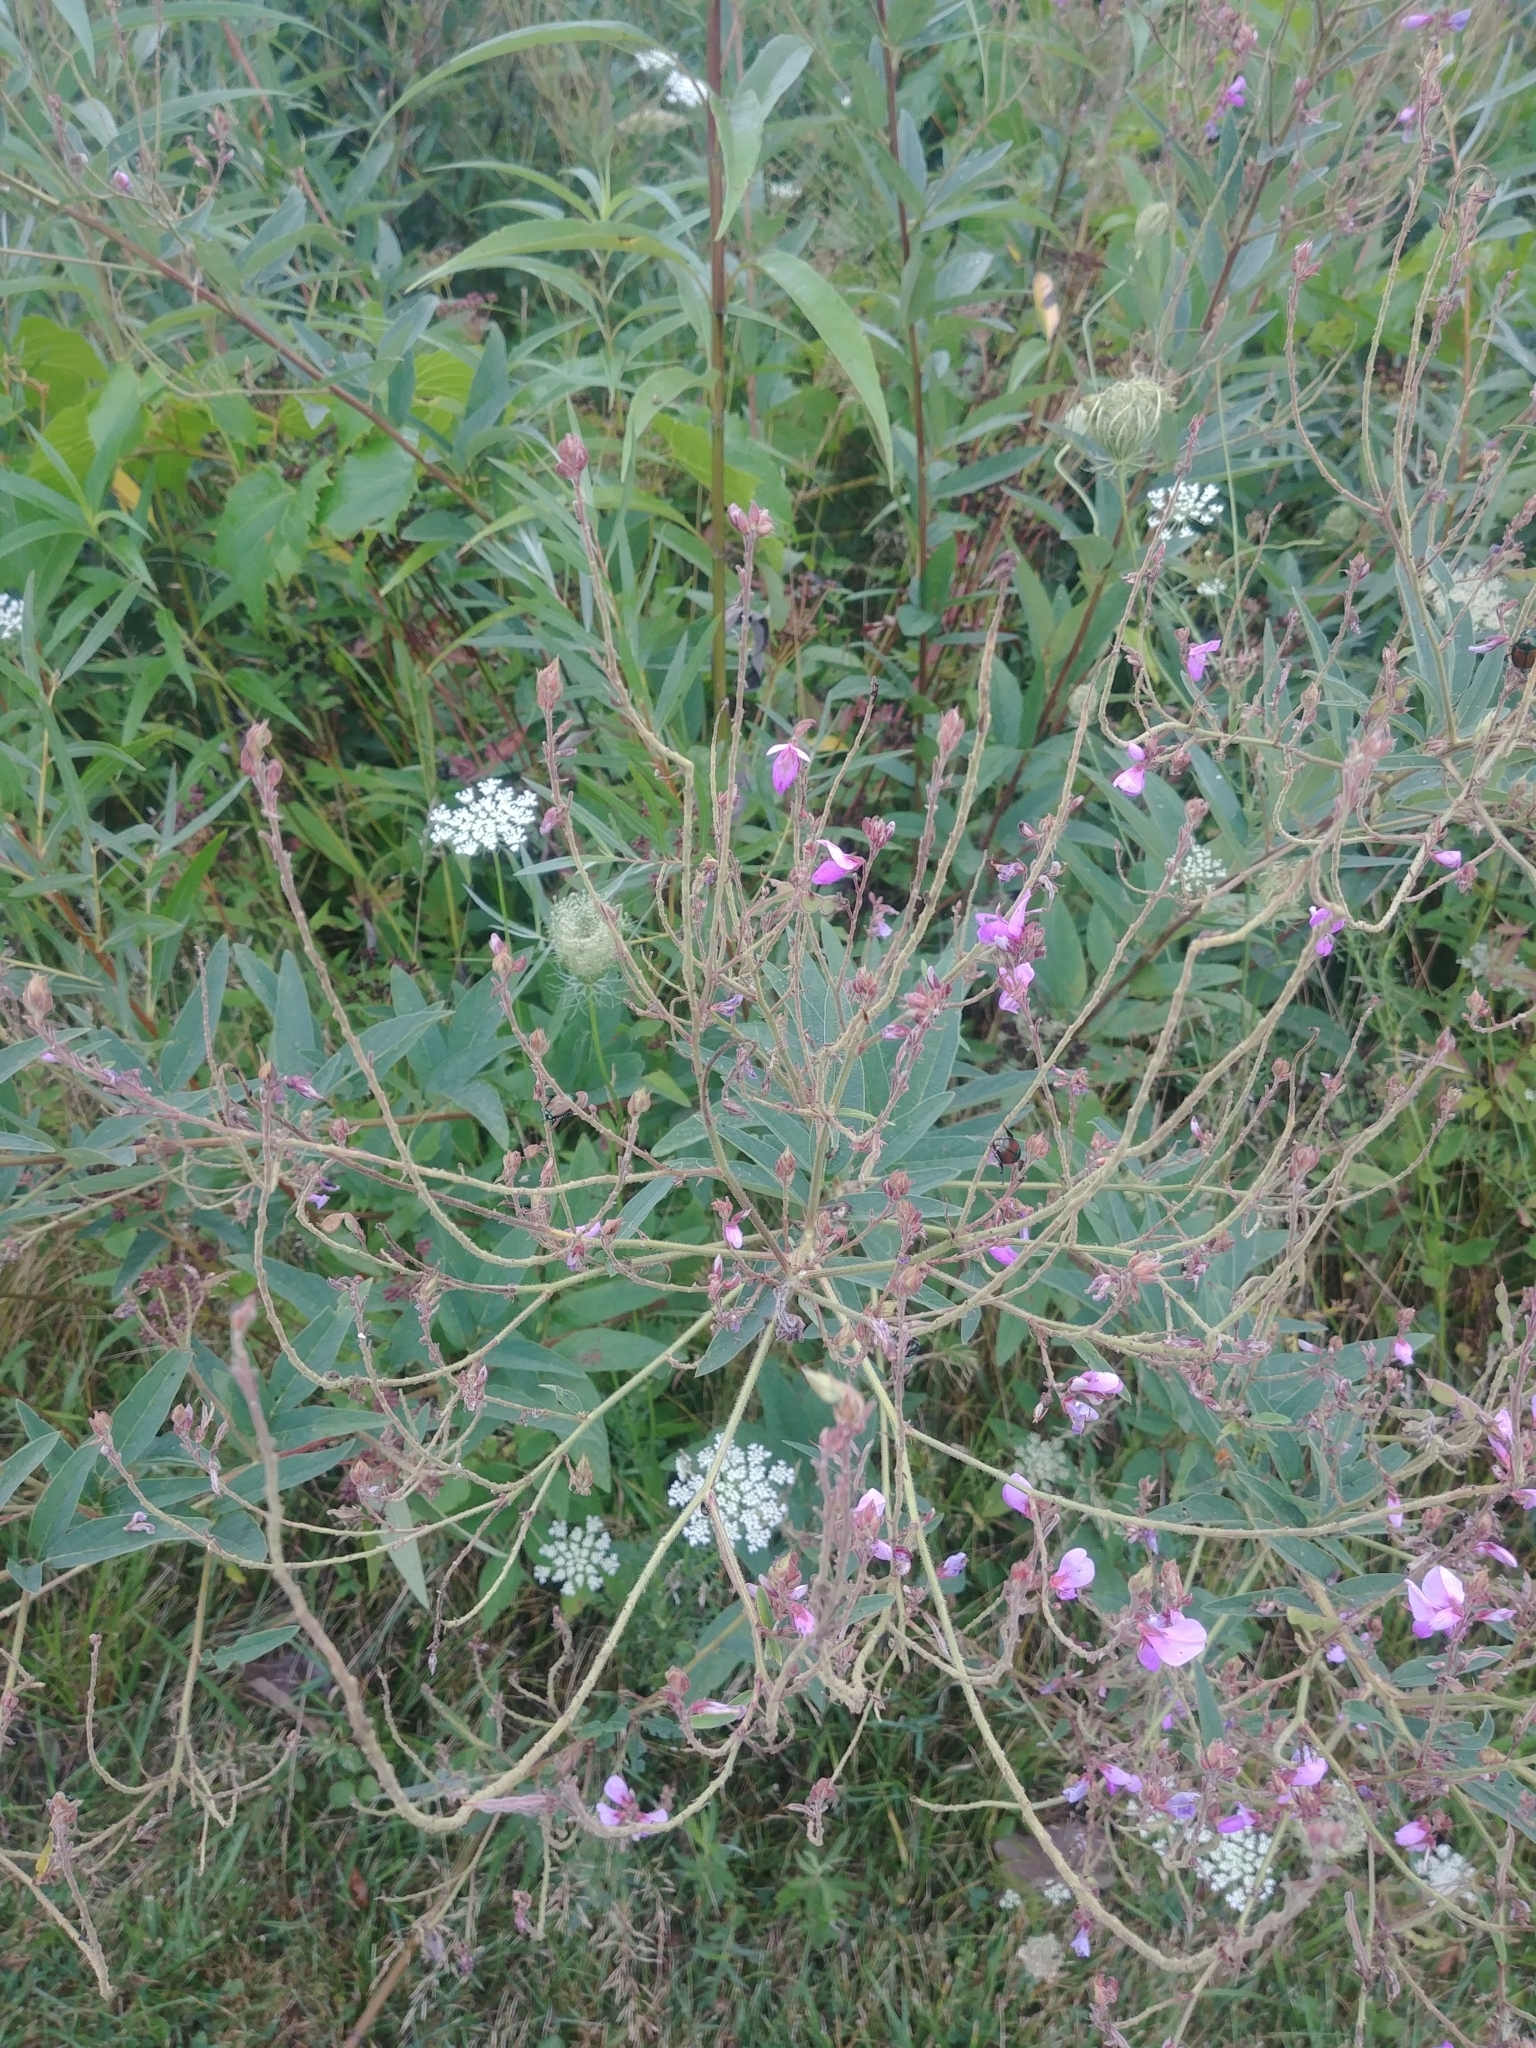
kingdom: Plantae
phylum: Tracheophyta
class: Magnoliopsida
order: Fabales
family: Fabaceae
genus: Desmodium
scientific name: Desmodium canadense
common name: Canada tick-trefoil
